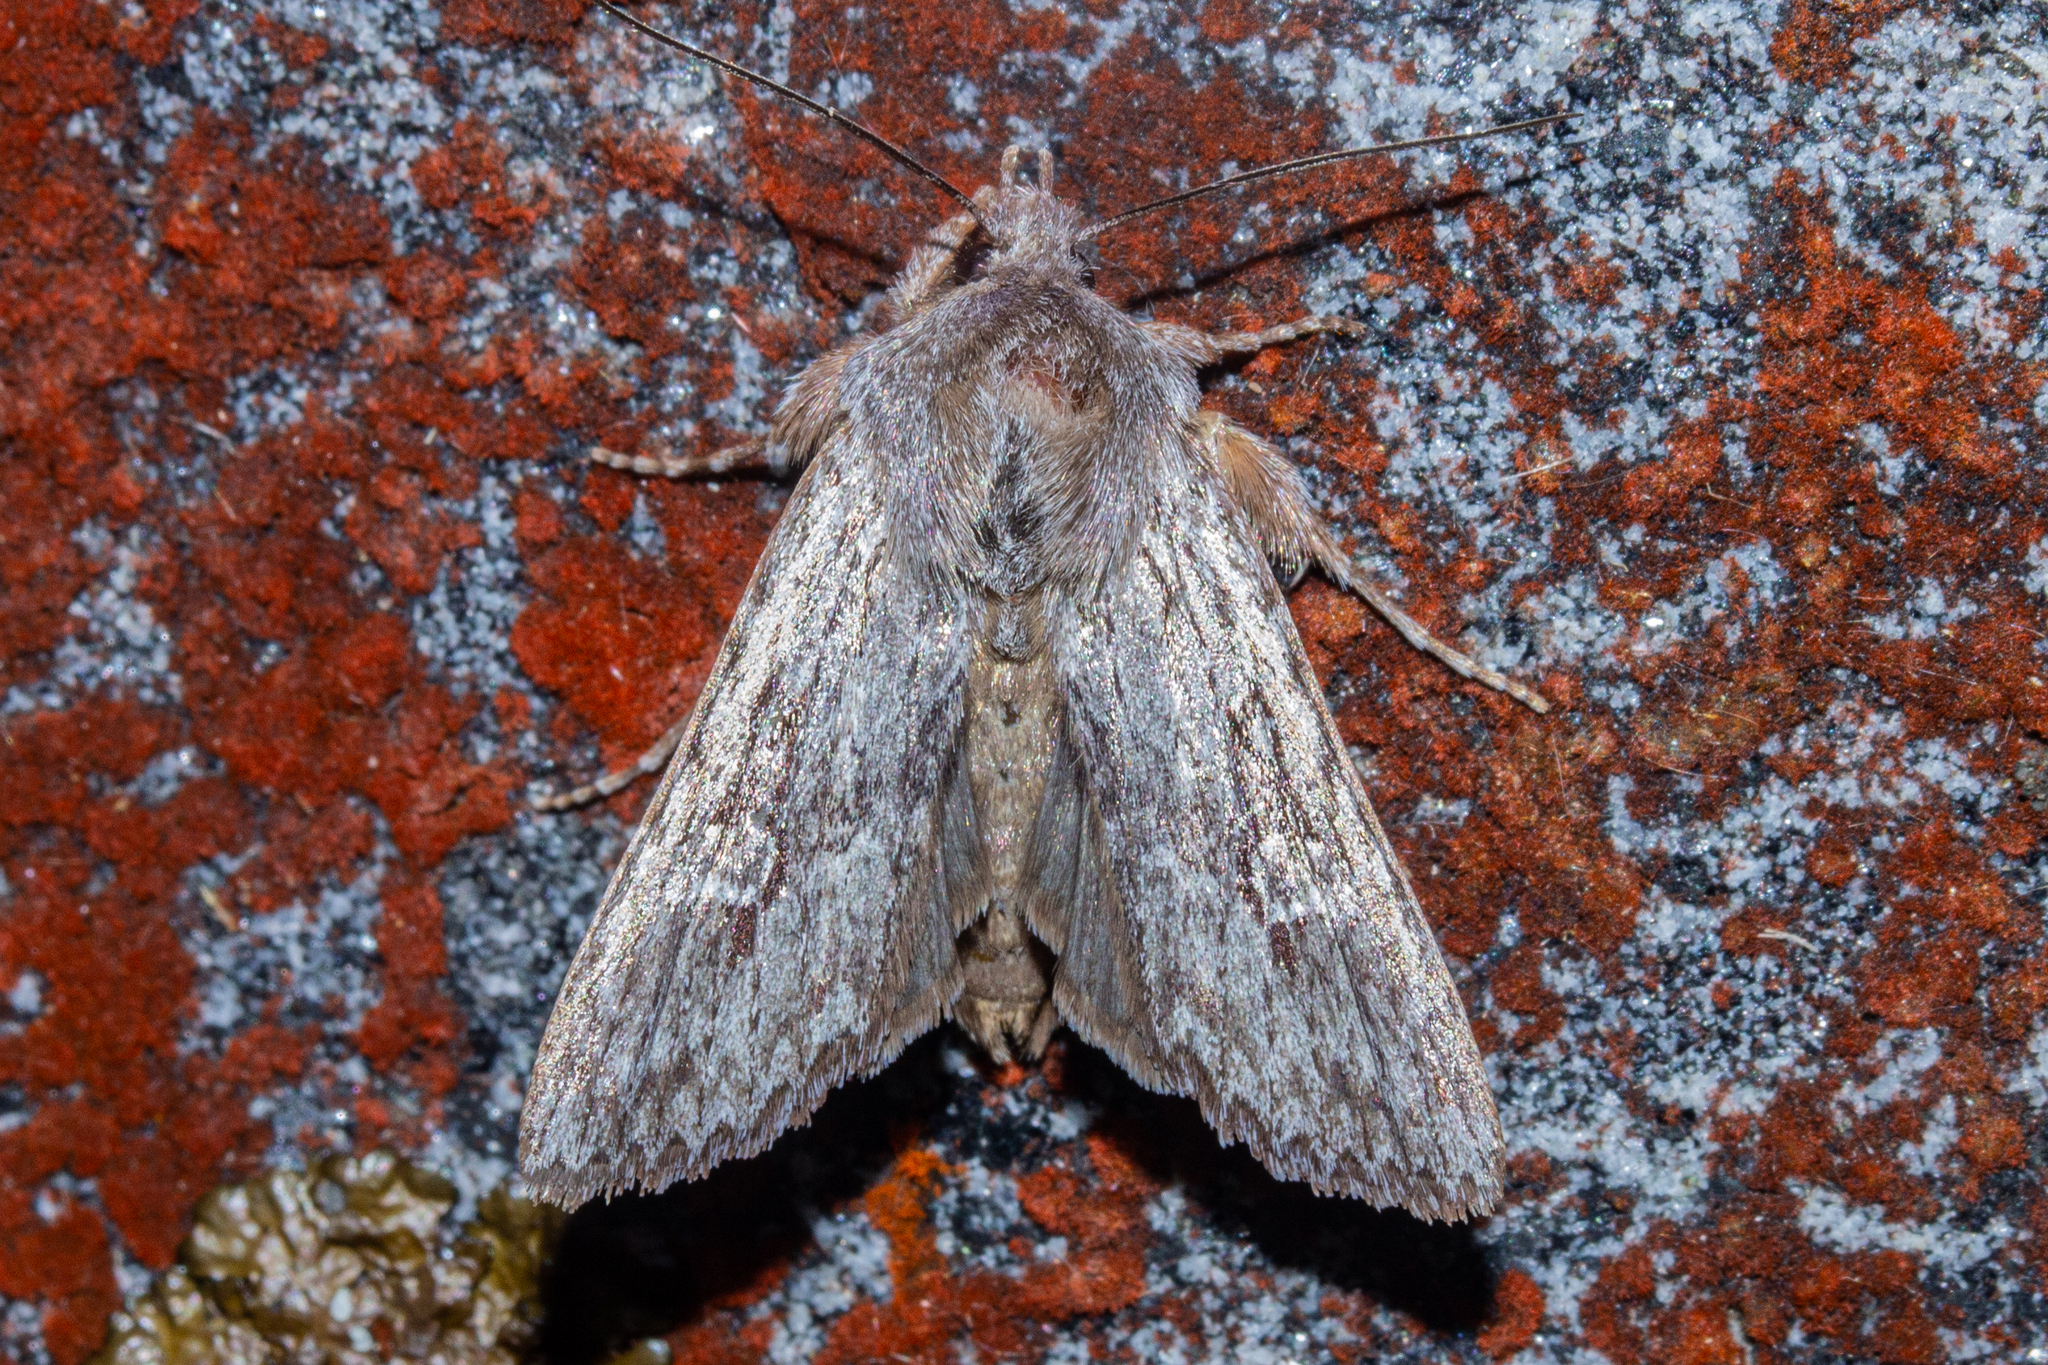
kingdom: Animalia
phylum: Arthropoda
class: Insecta
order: Lepidoptera
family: Noctuidae
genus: Physetica
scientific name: Physetica sequens
